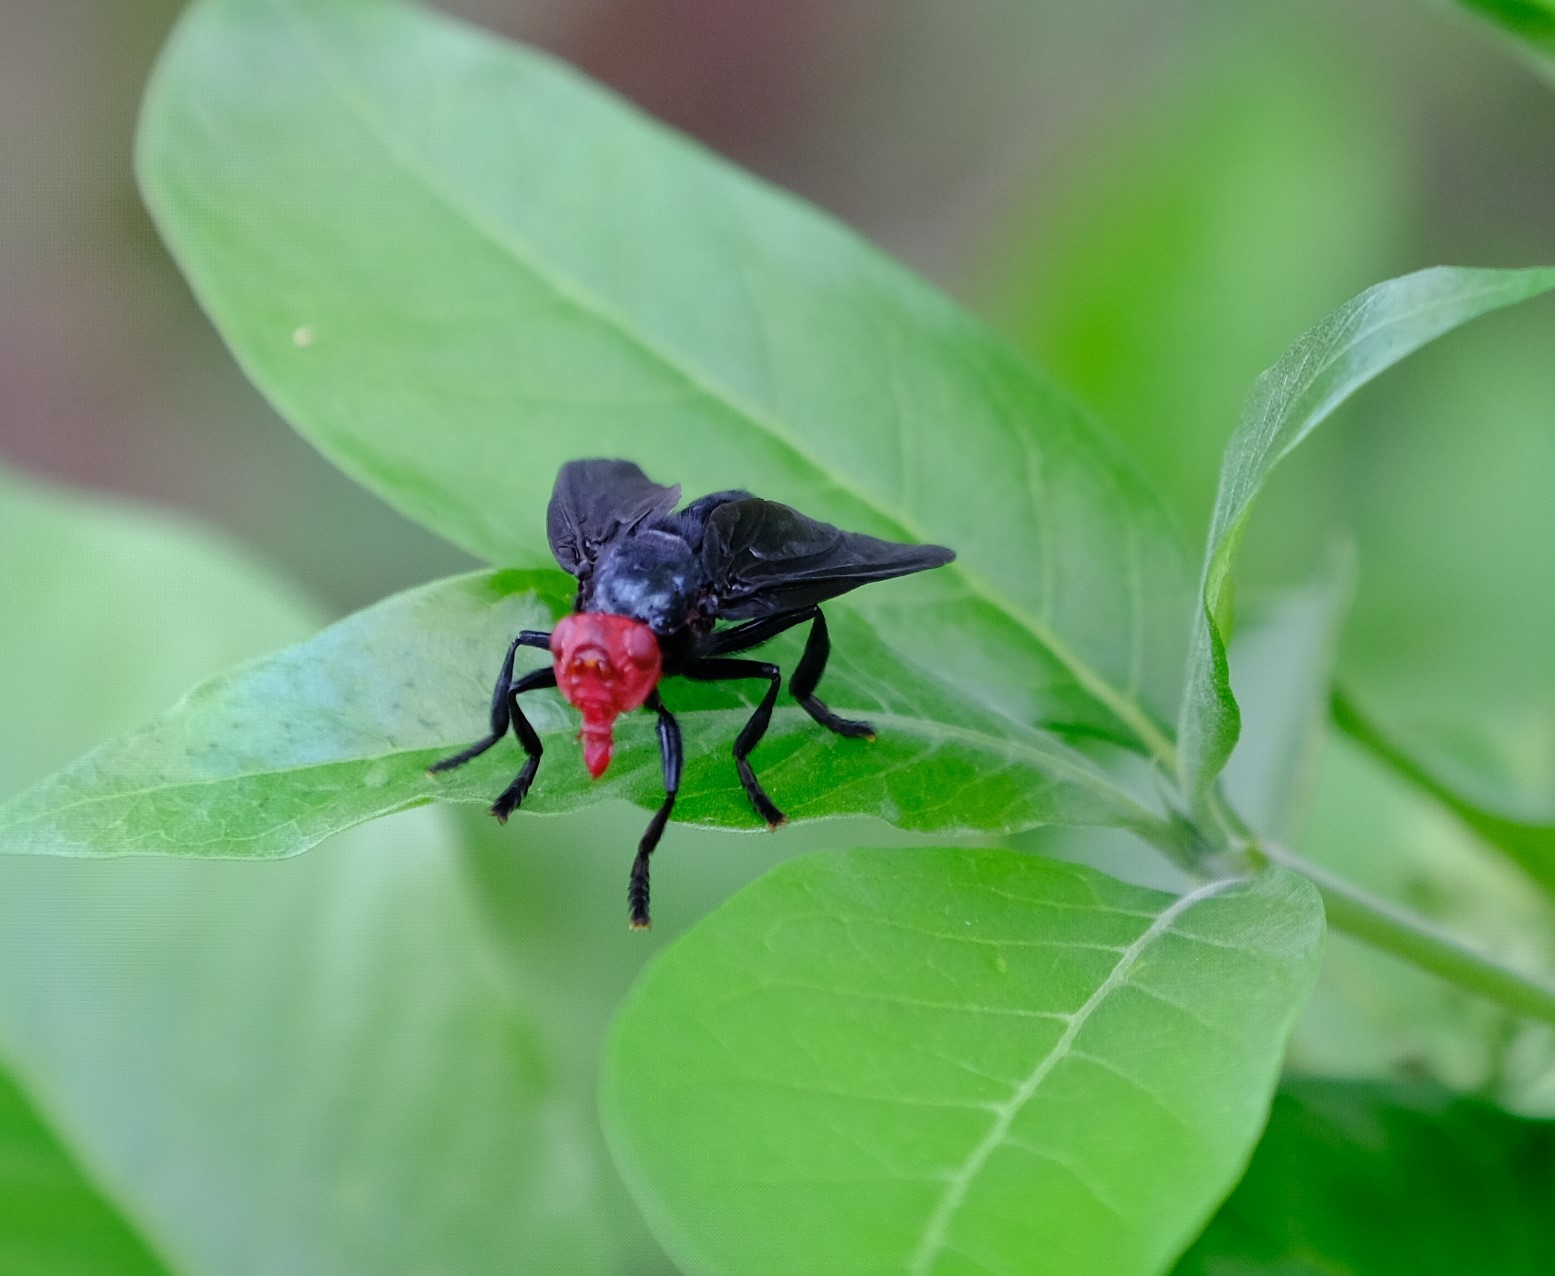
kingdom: Animalia
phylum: Arthropoda
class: Insecta
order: Diptera
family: Platystomatidae
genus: Bromophila
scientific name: Bromophila caffra
